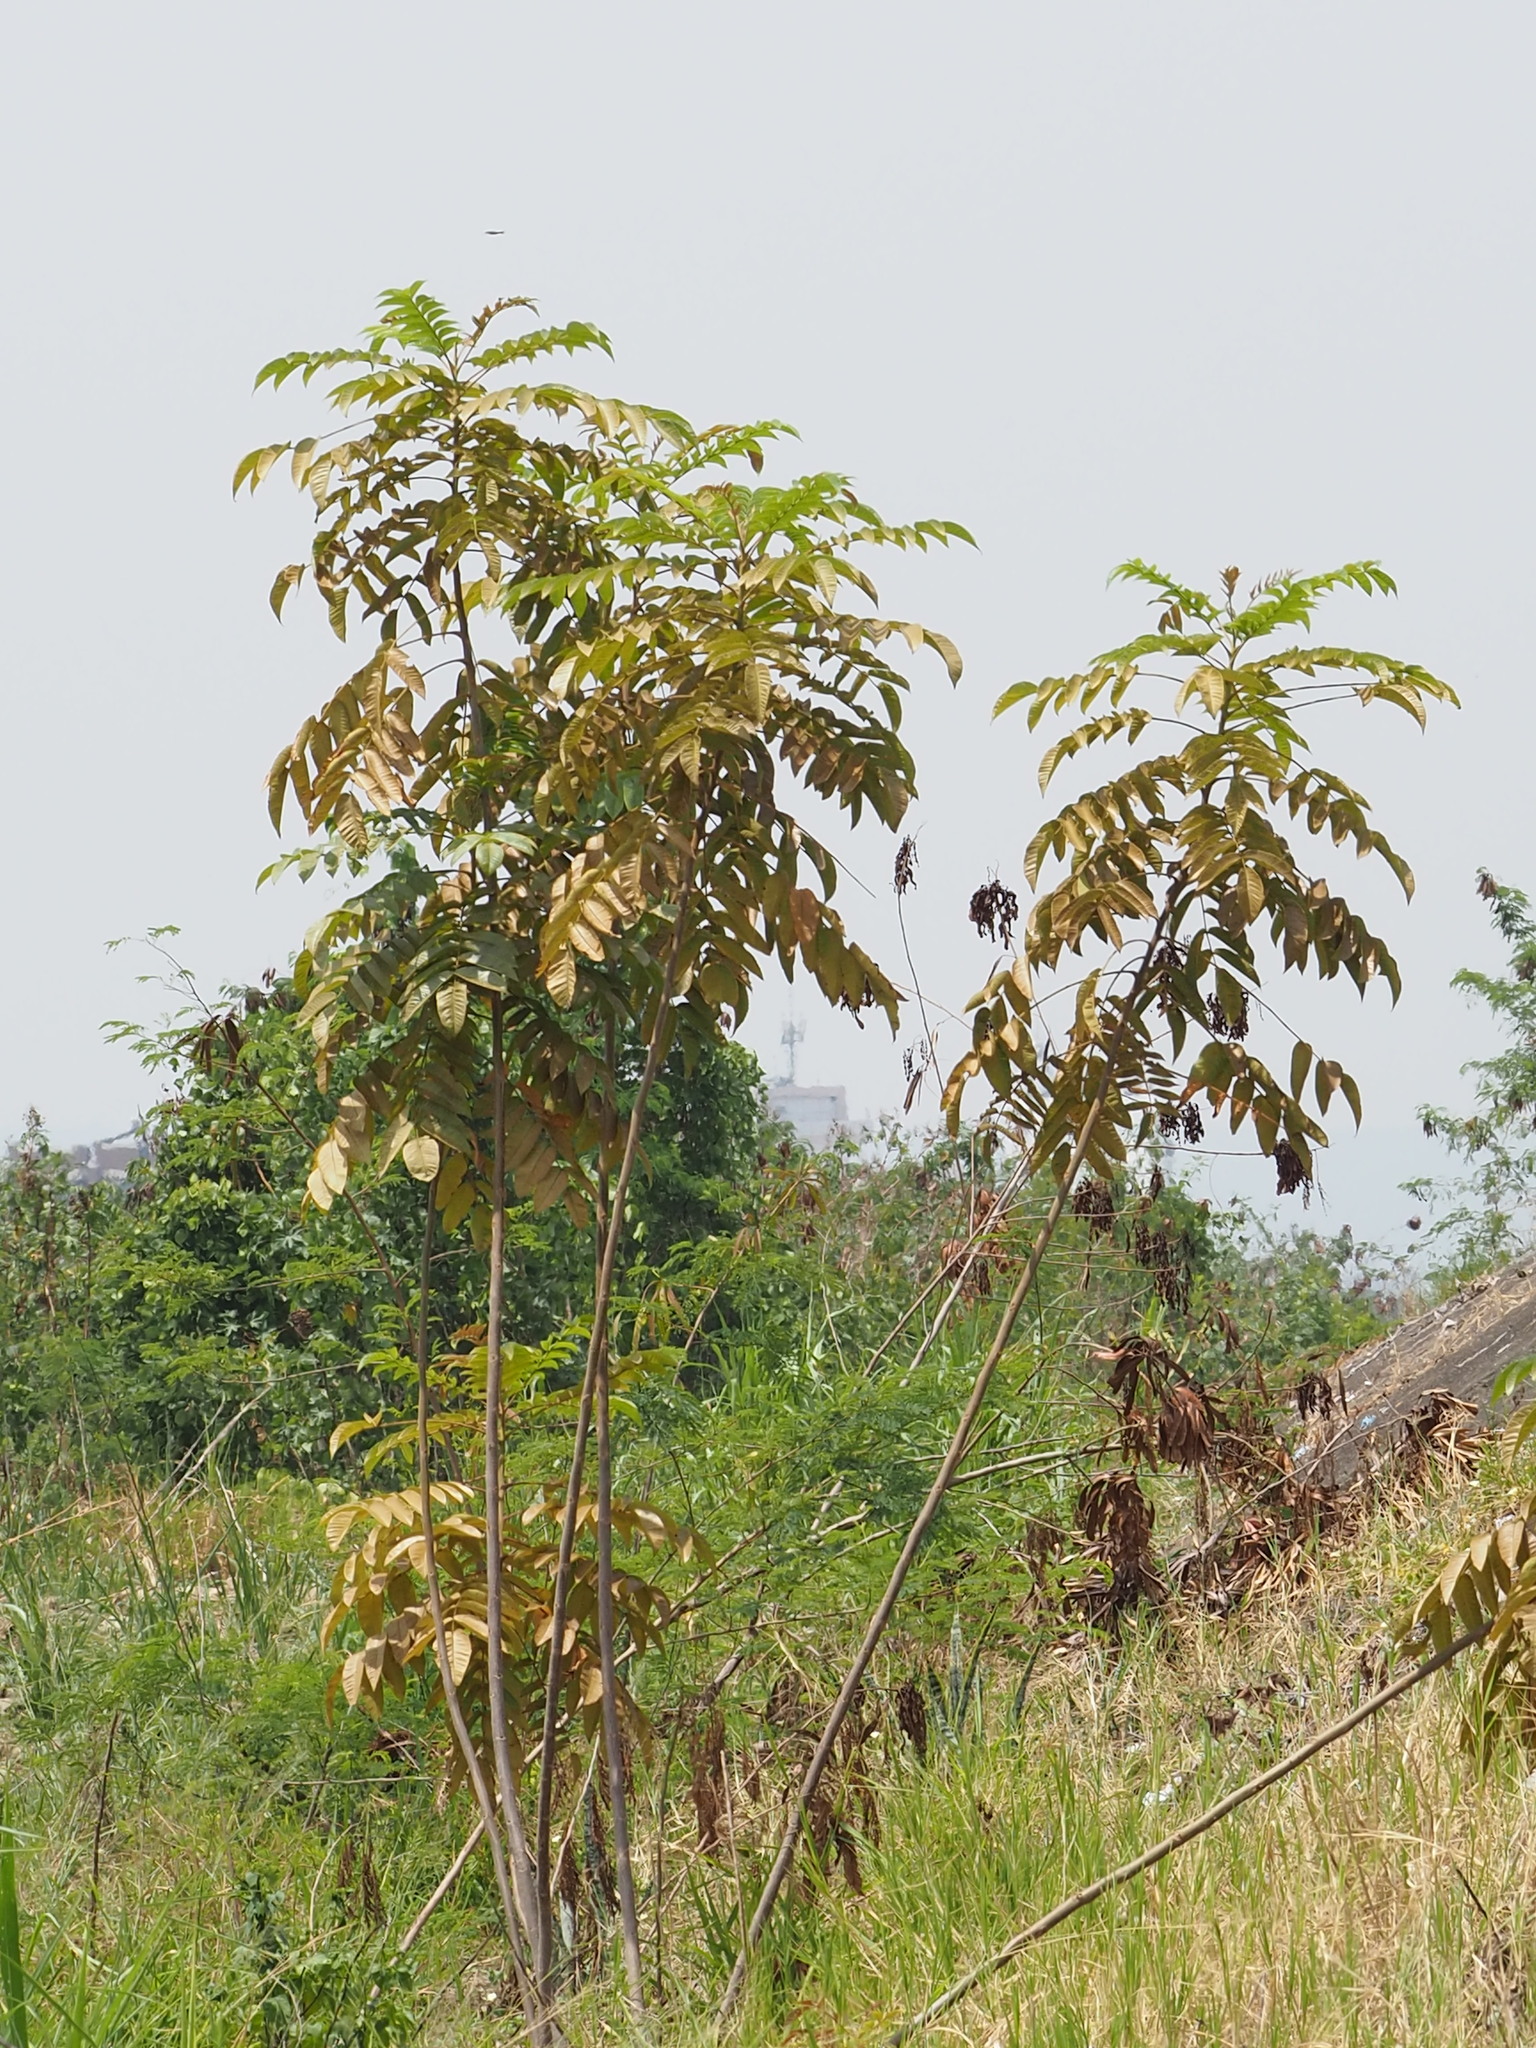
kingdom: Plantae
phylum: Tracheophyta
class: Magnoliopsida
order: Sapindales
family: Anacardiaceae
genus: Rhus
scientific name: Rhus chinensis
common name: Chinese gall
